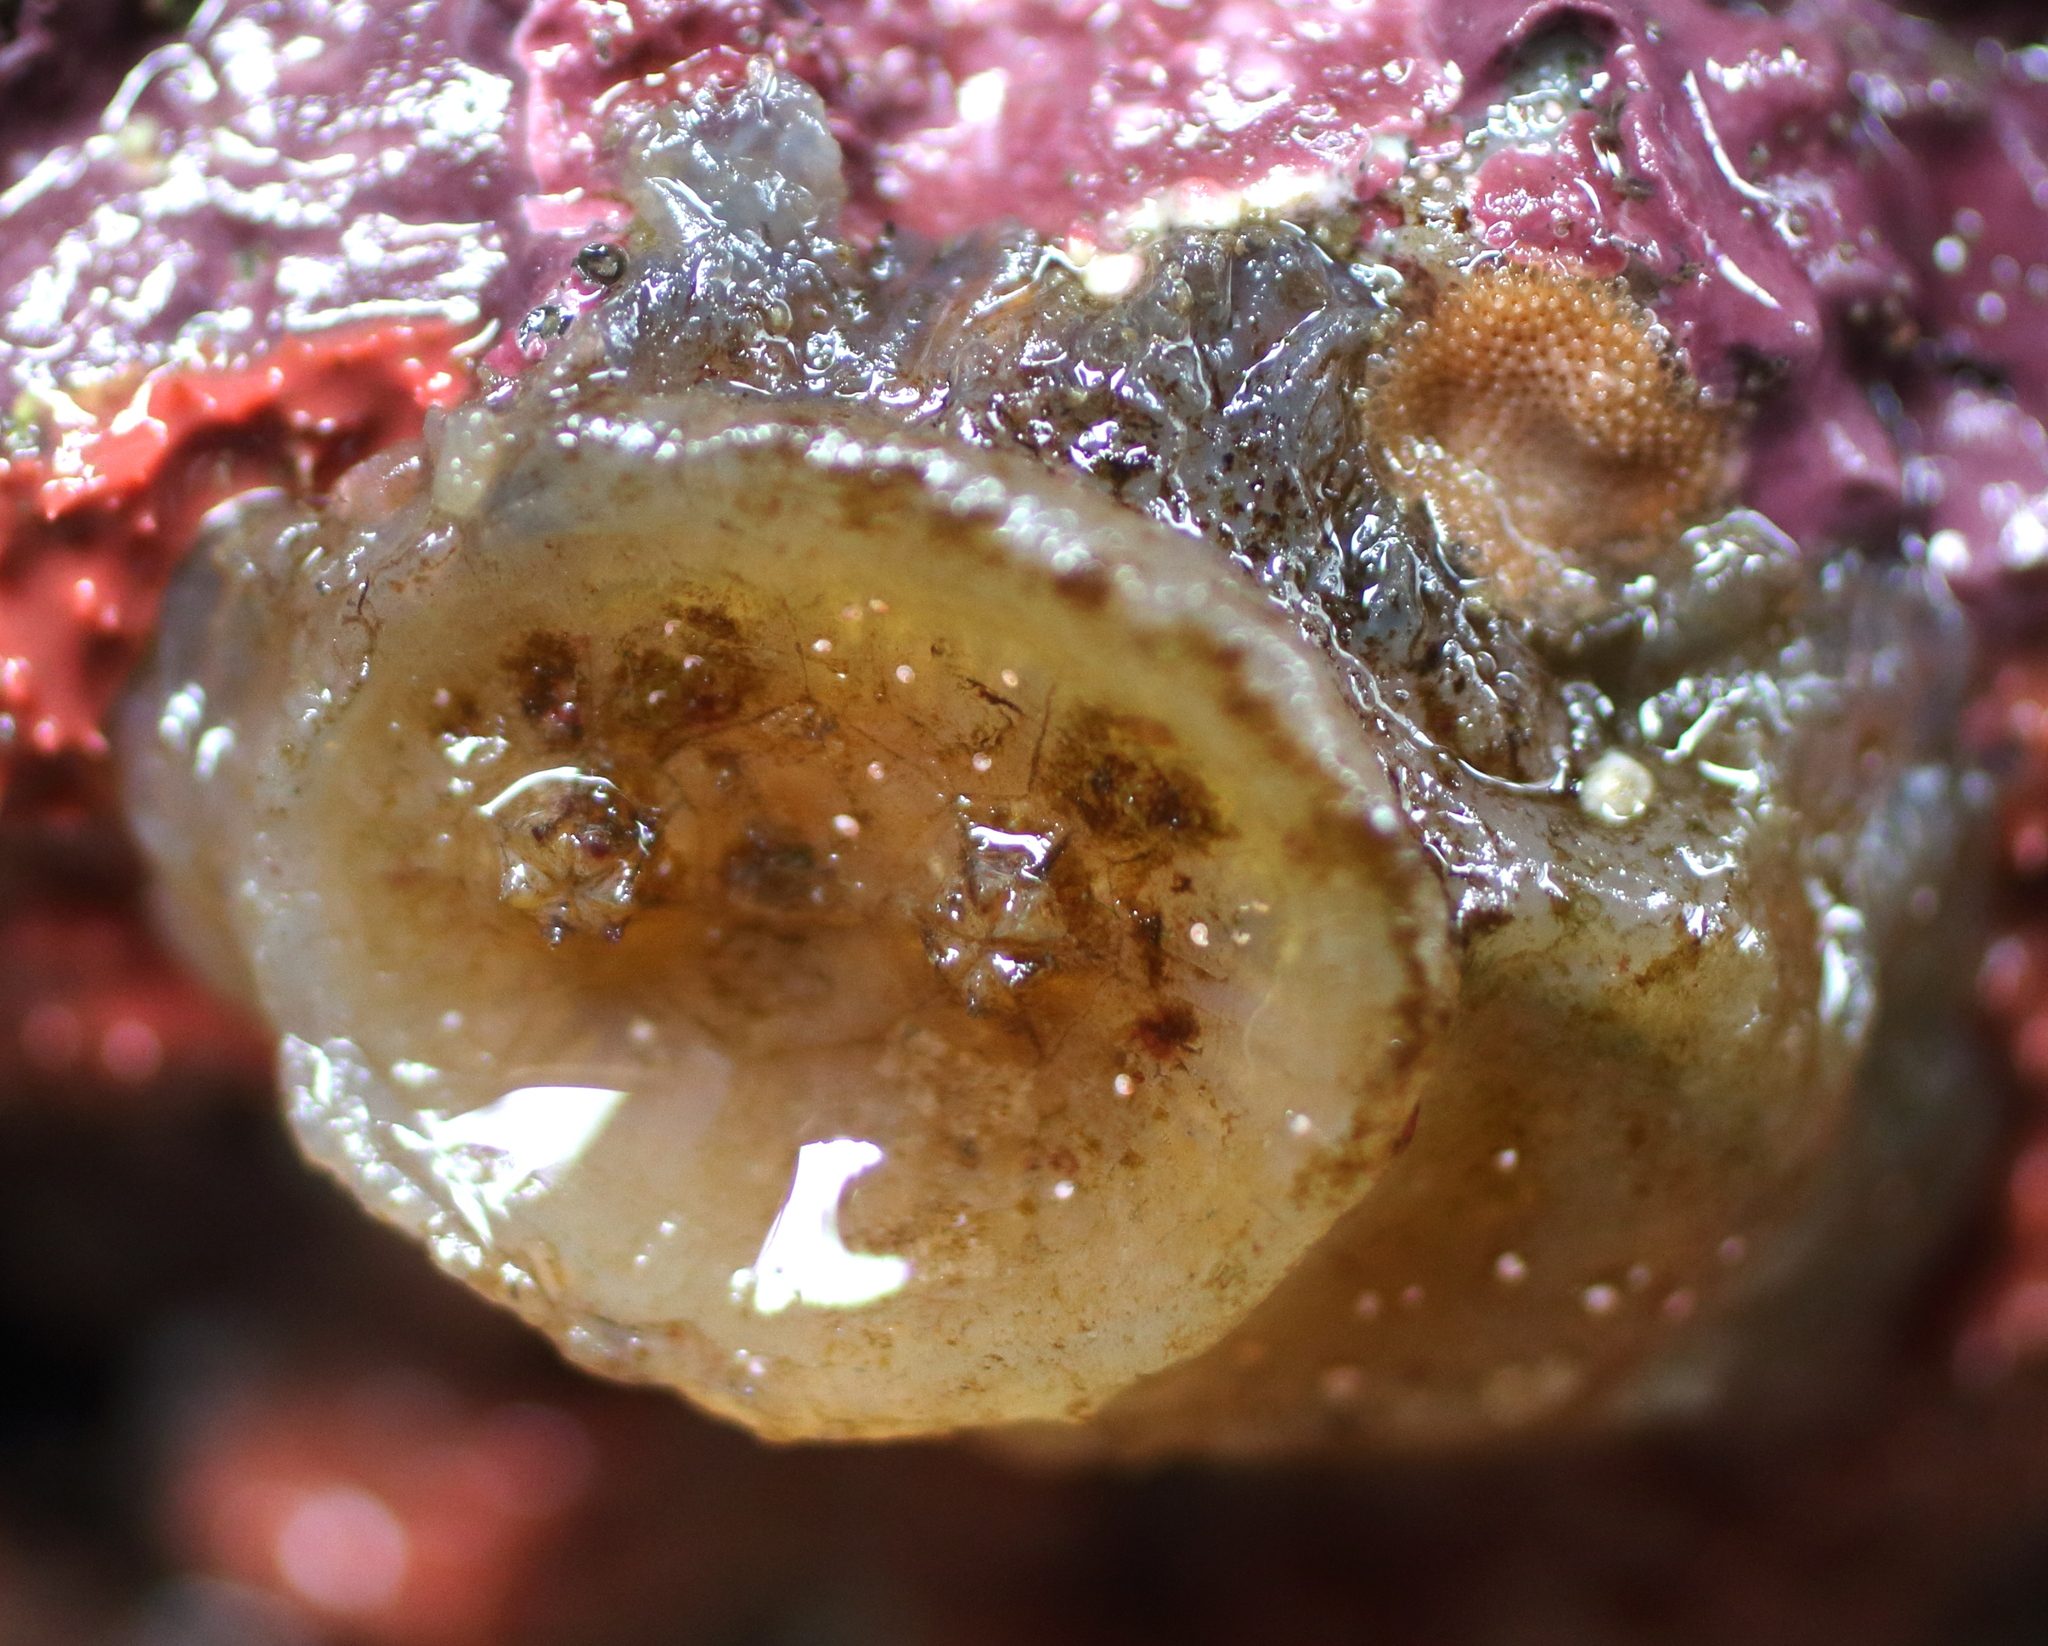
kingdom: Animalia
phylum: Chordata
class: Ascidiacea
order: Phlebobranchia
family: Corellidae
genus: Chelyosoma
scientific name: Chelyosoma productum
